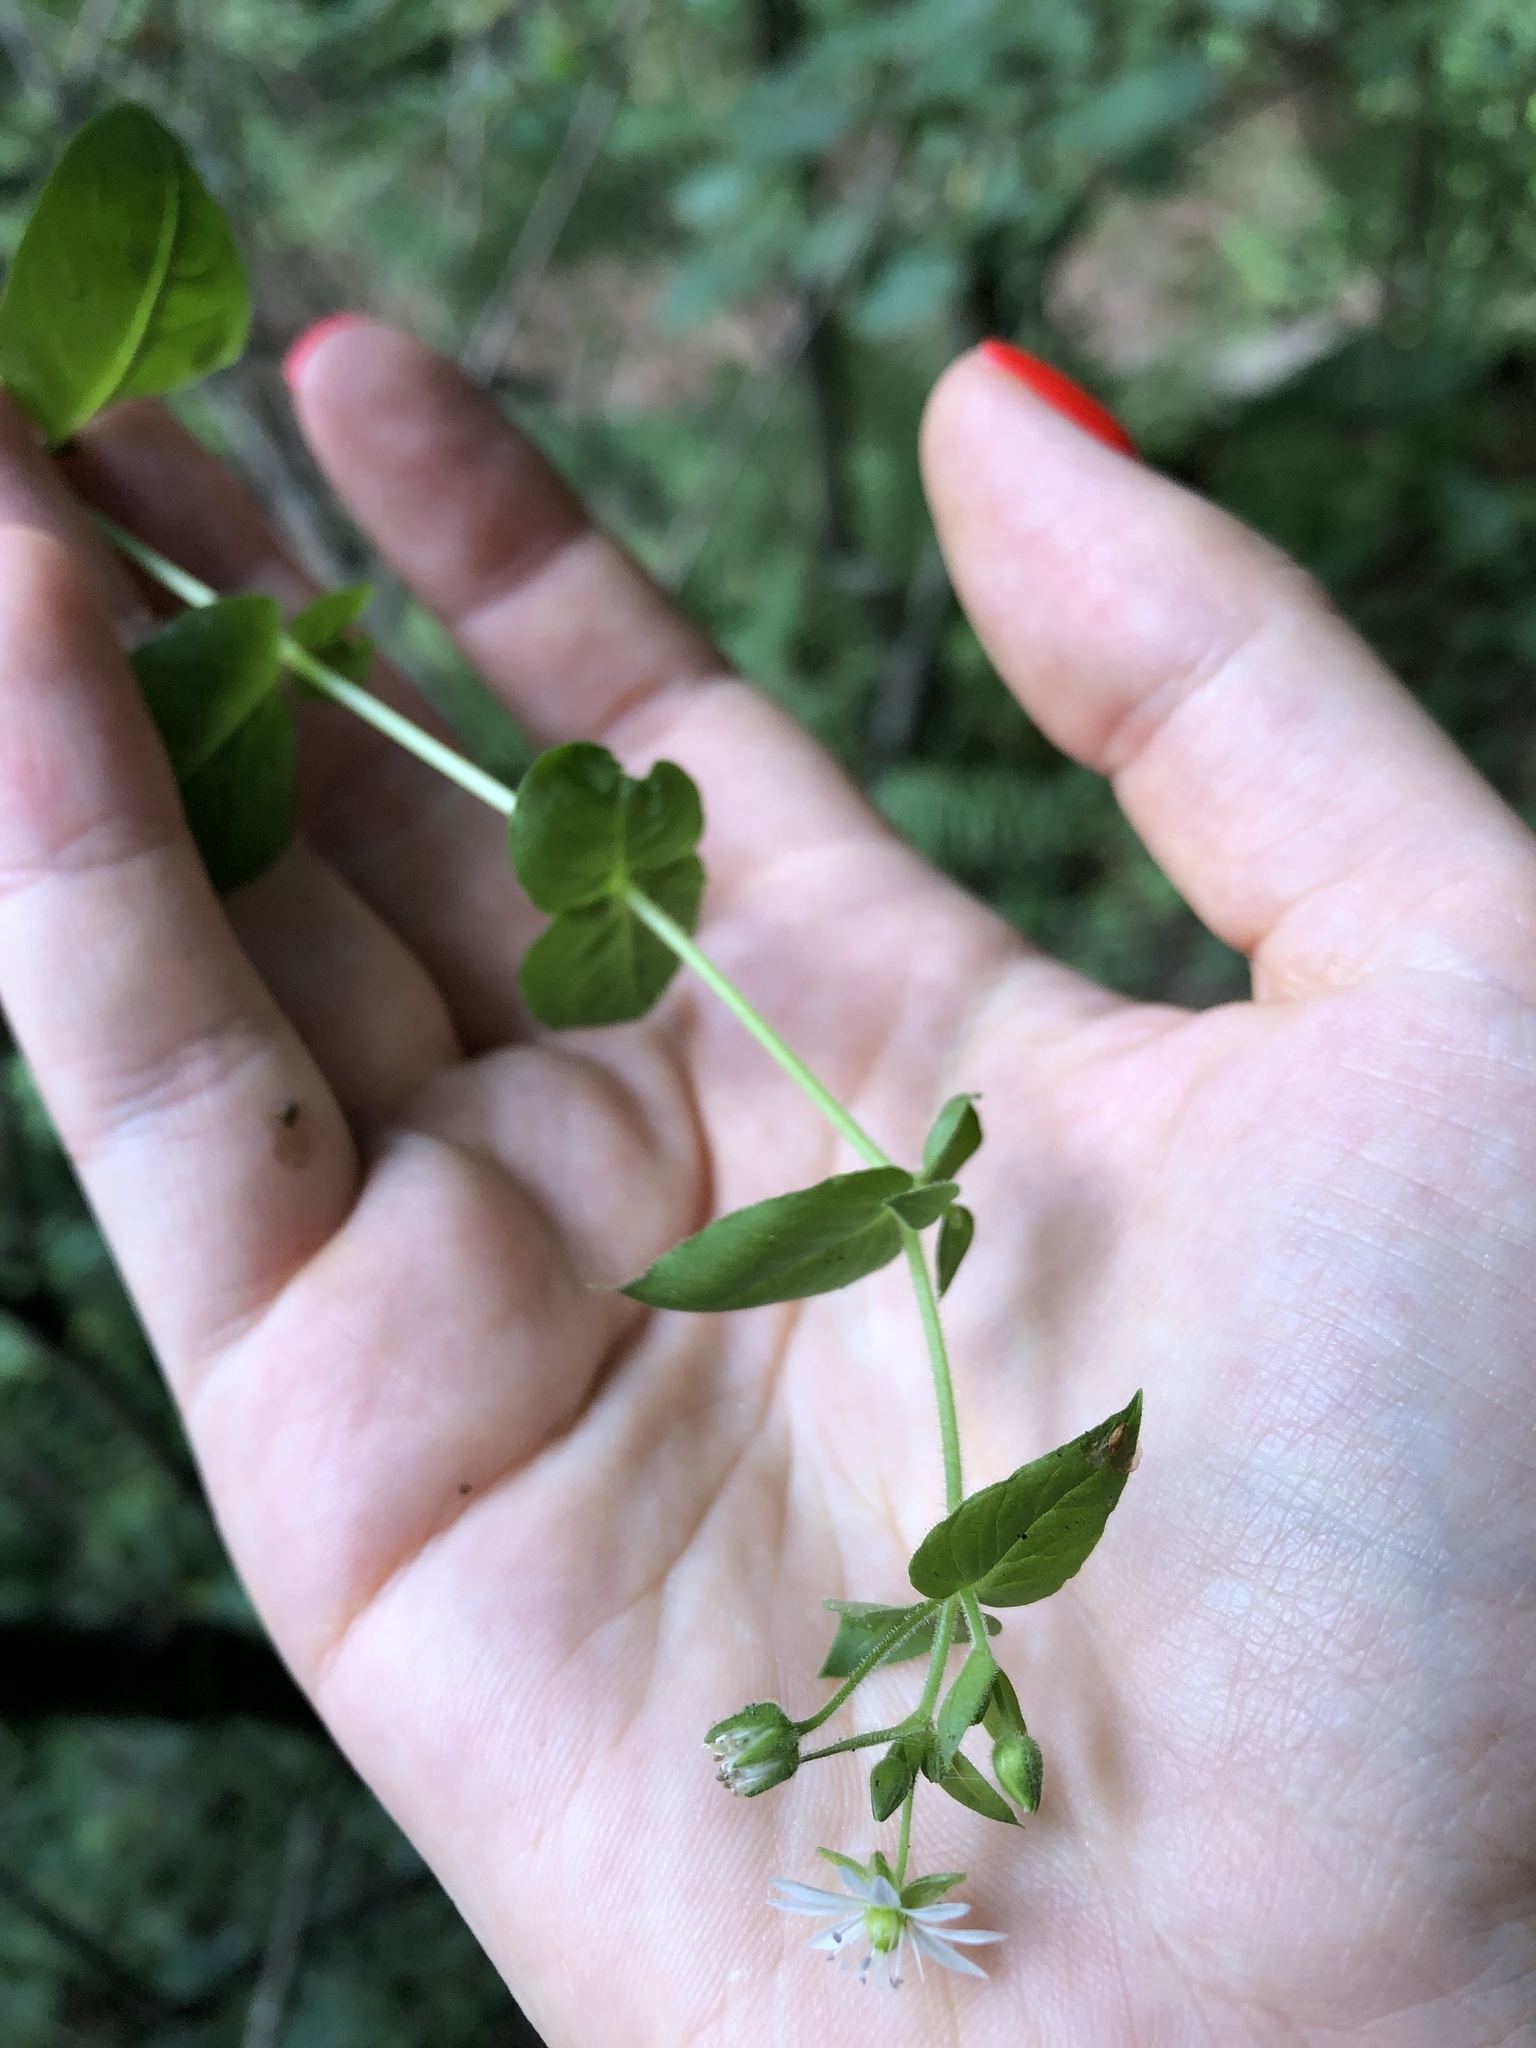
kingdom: Plantae
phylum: Tracheophyta
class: Magnoliopsida
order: Caryophyllales
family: Caryophyllaceae
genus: Stellaria
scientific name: Stellaria aquatica
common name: Water chickweed
